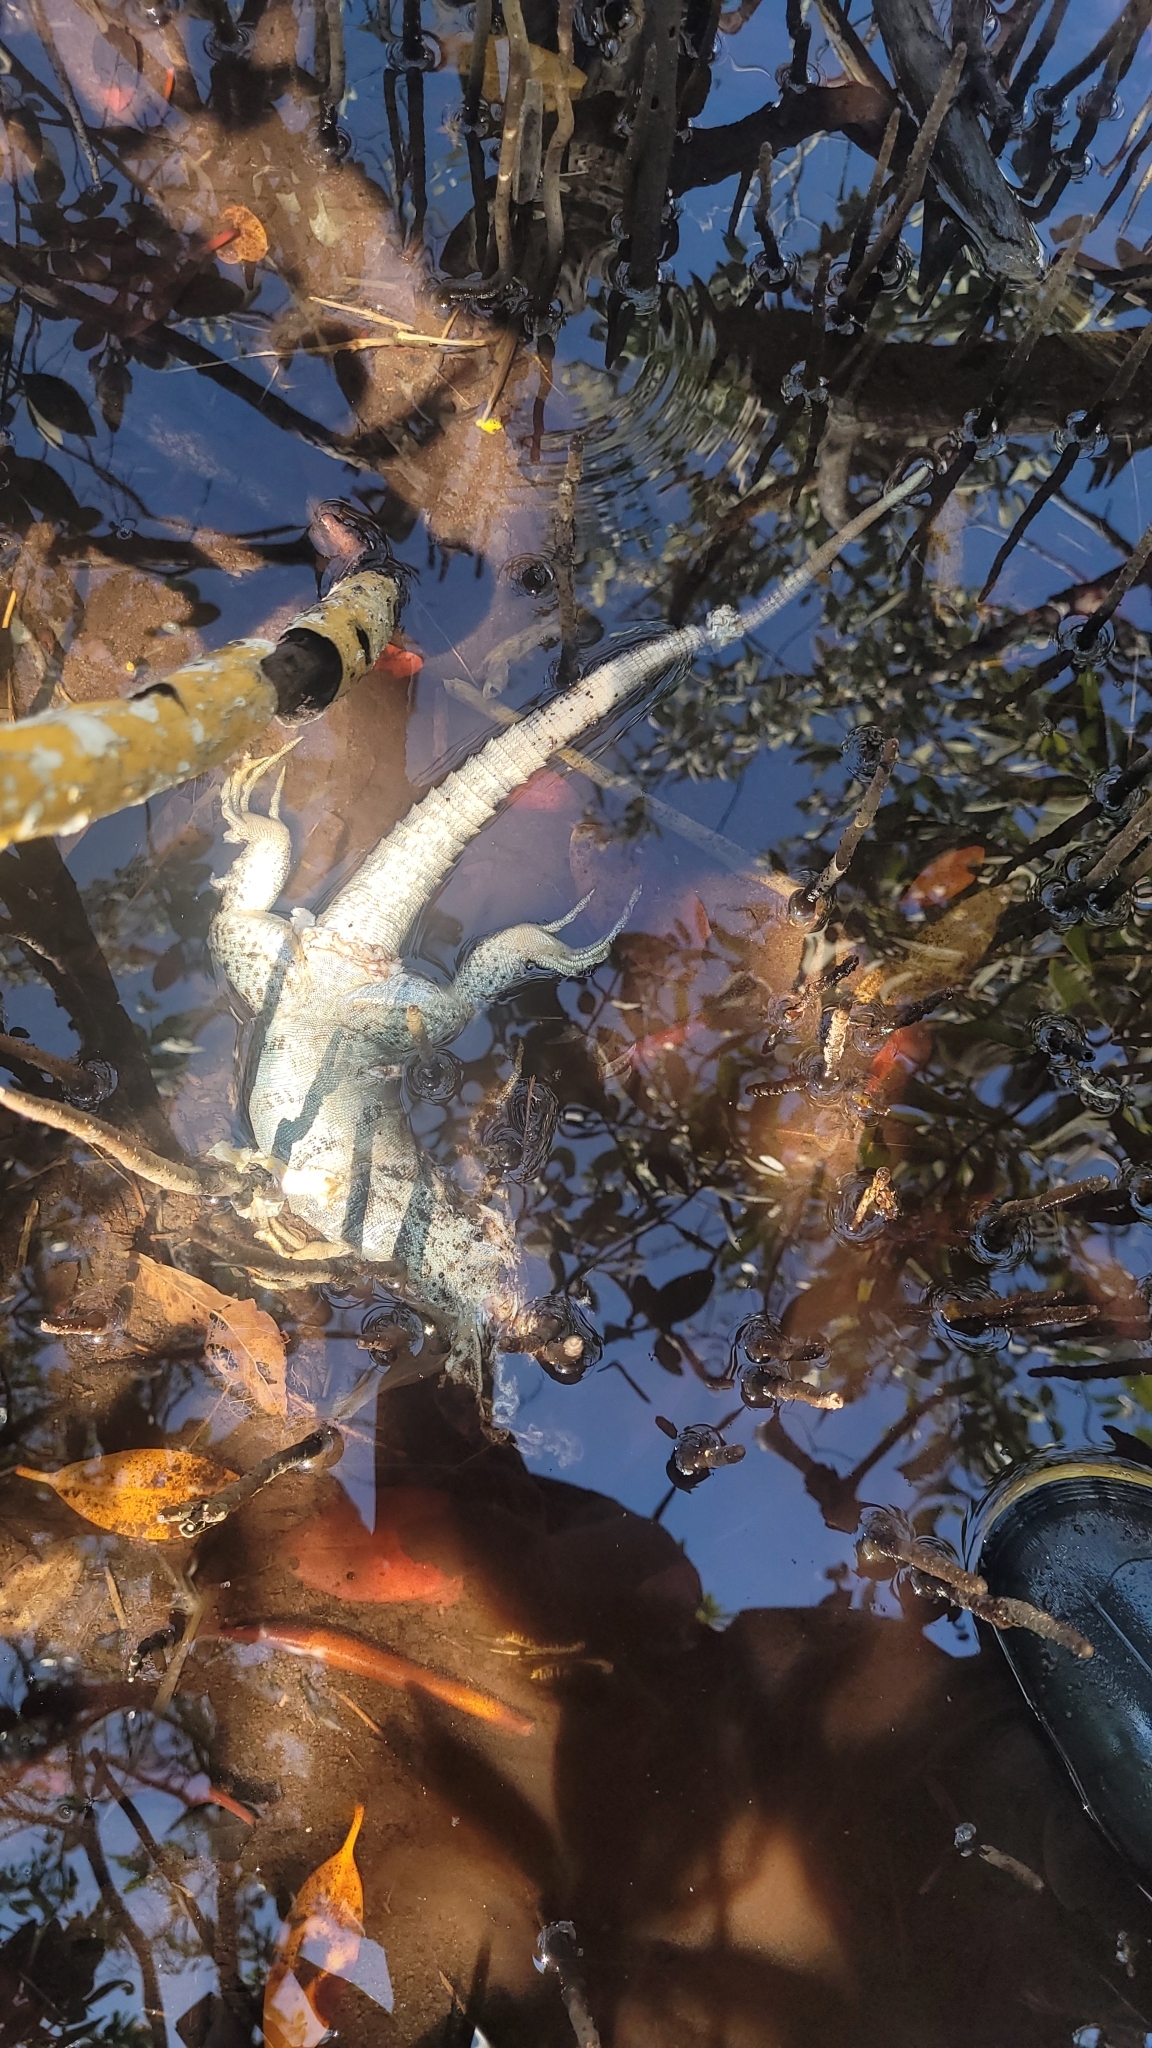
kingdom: Animalia
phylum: Chordata
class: Squamata
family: Iguanidae
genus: Ctenosaura
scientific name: Ctenosaura bakeri
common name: Utila spiny-tailed iguana
